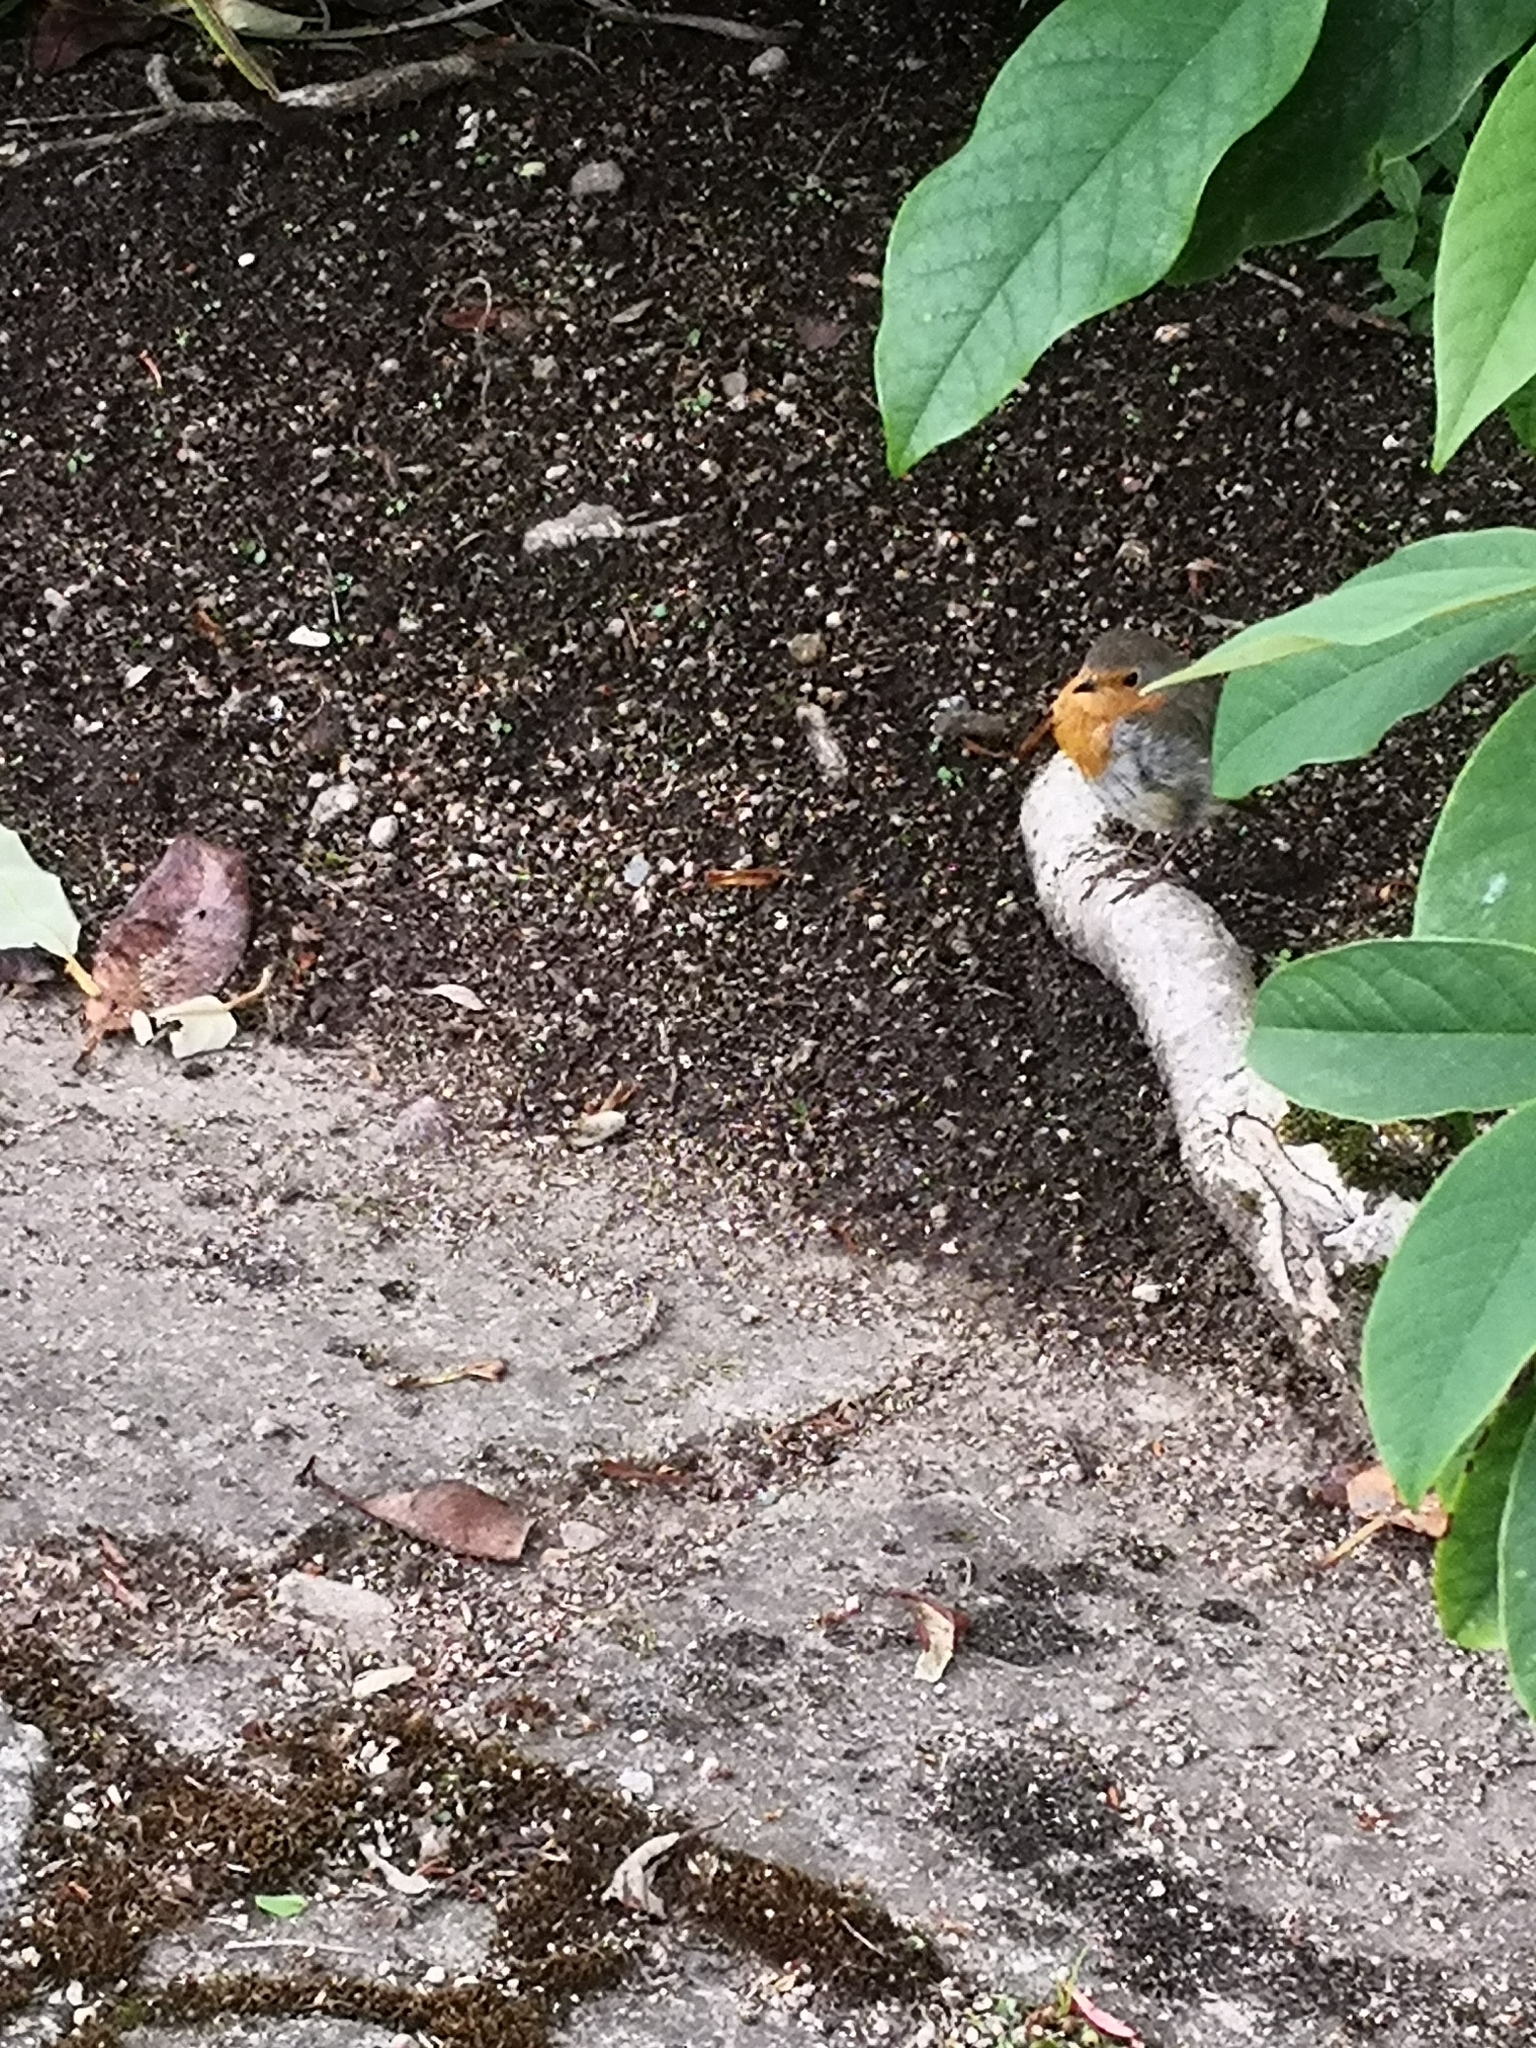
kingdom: Animalia
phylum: Chordata
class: Aves
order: Passeriformes
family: Muscicapidae
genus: Erithacus
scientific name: Erithacus rubecula
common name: European robin
